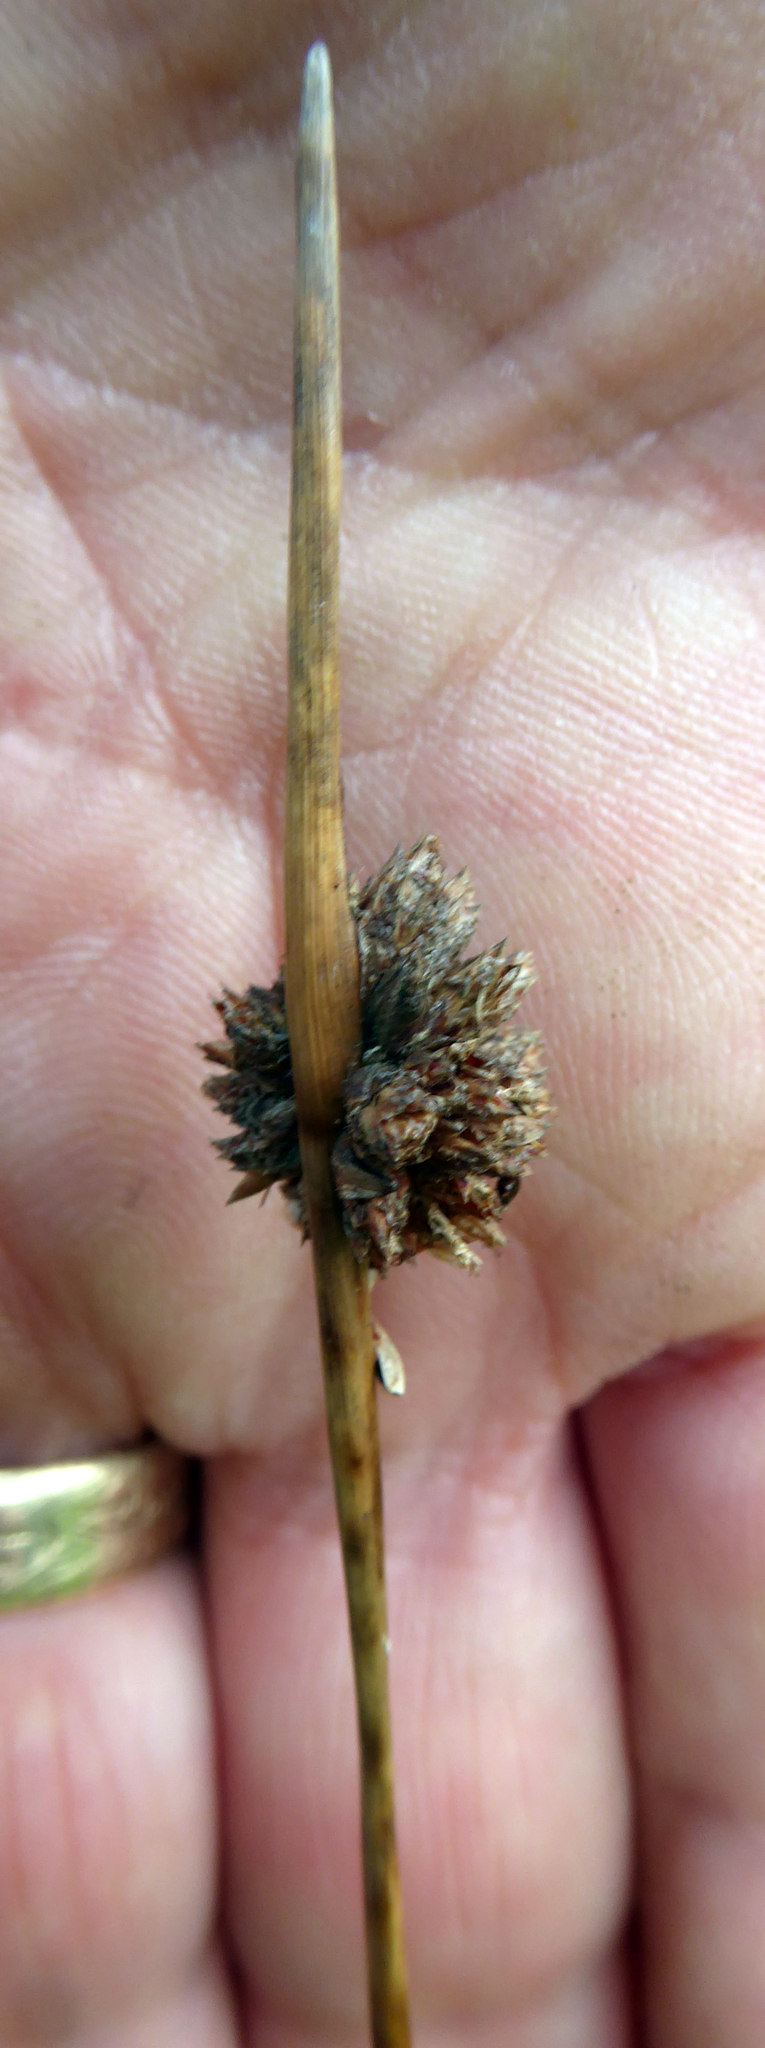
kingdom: Plantae
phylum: Tracheophyta
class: Liliopsida
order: Poales
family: Cyperaceae
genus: Ficinia
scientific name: Ficinia nodosa
